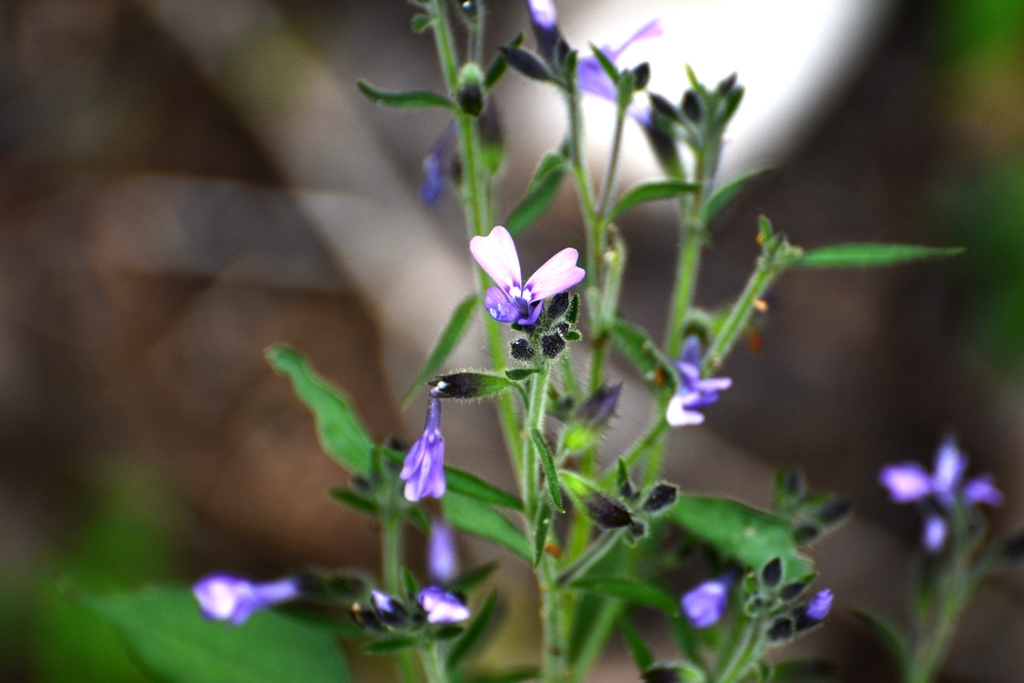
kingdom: Plantae
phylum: Tracheophyta
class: Magnoliopsida
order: Ericales
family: Polemoniaceae
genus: Bonplandia
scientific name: Bonplandia geminiflora
